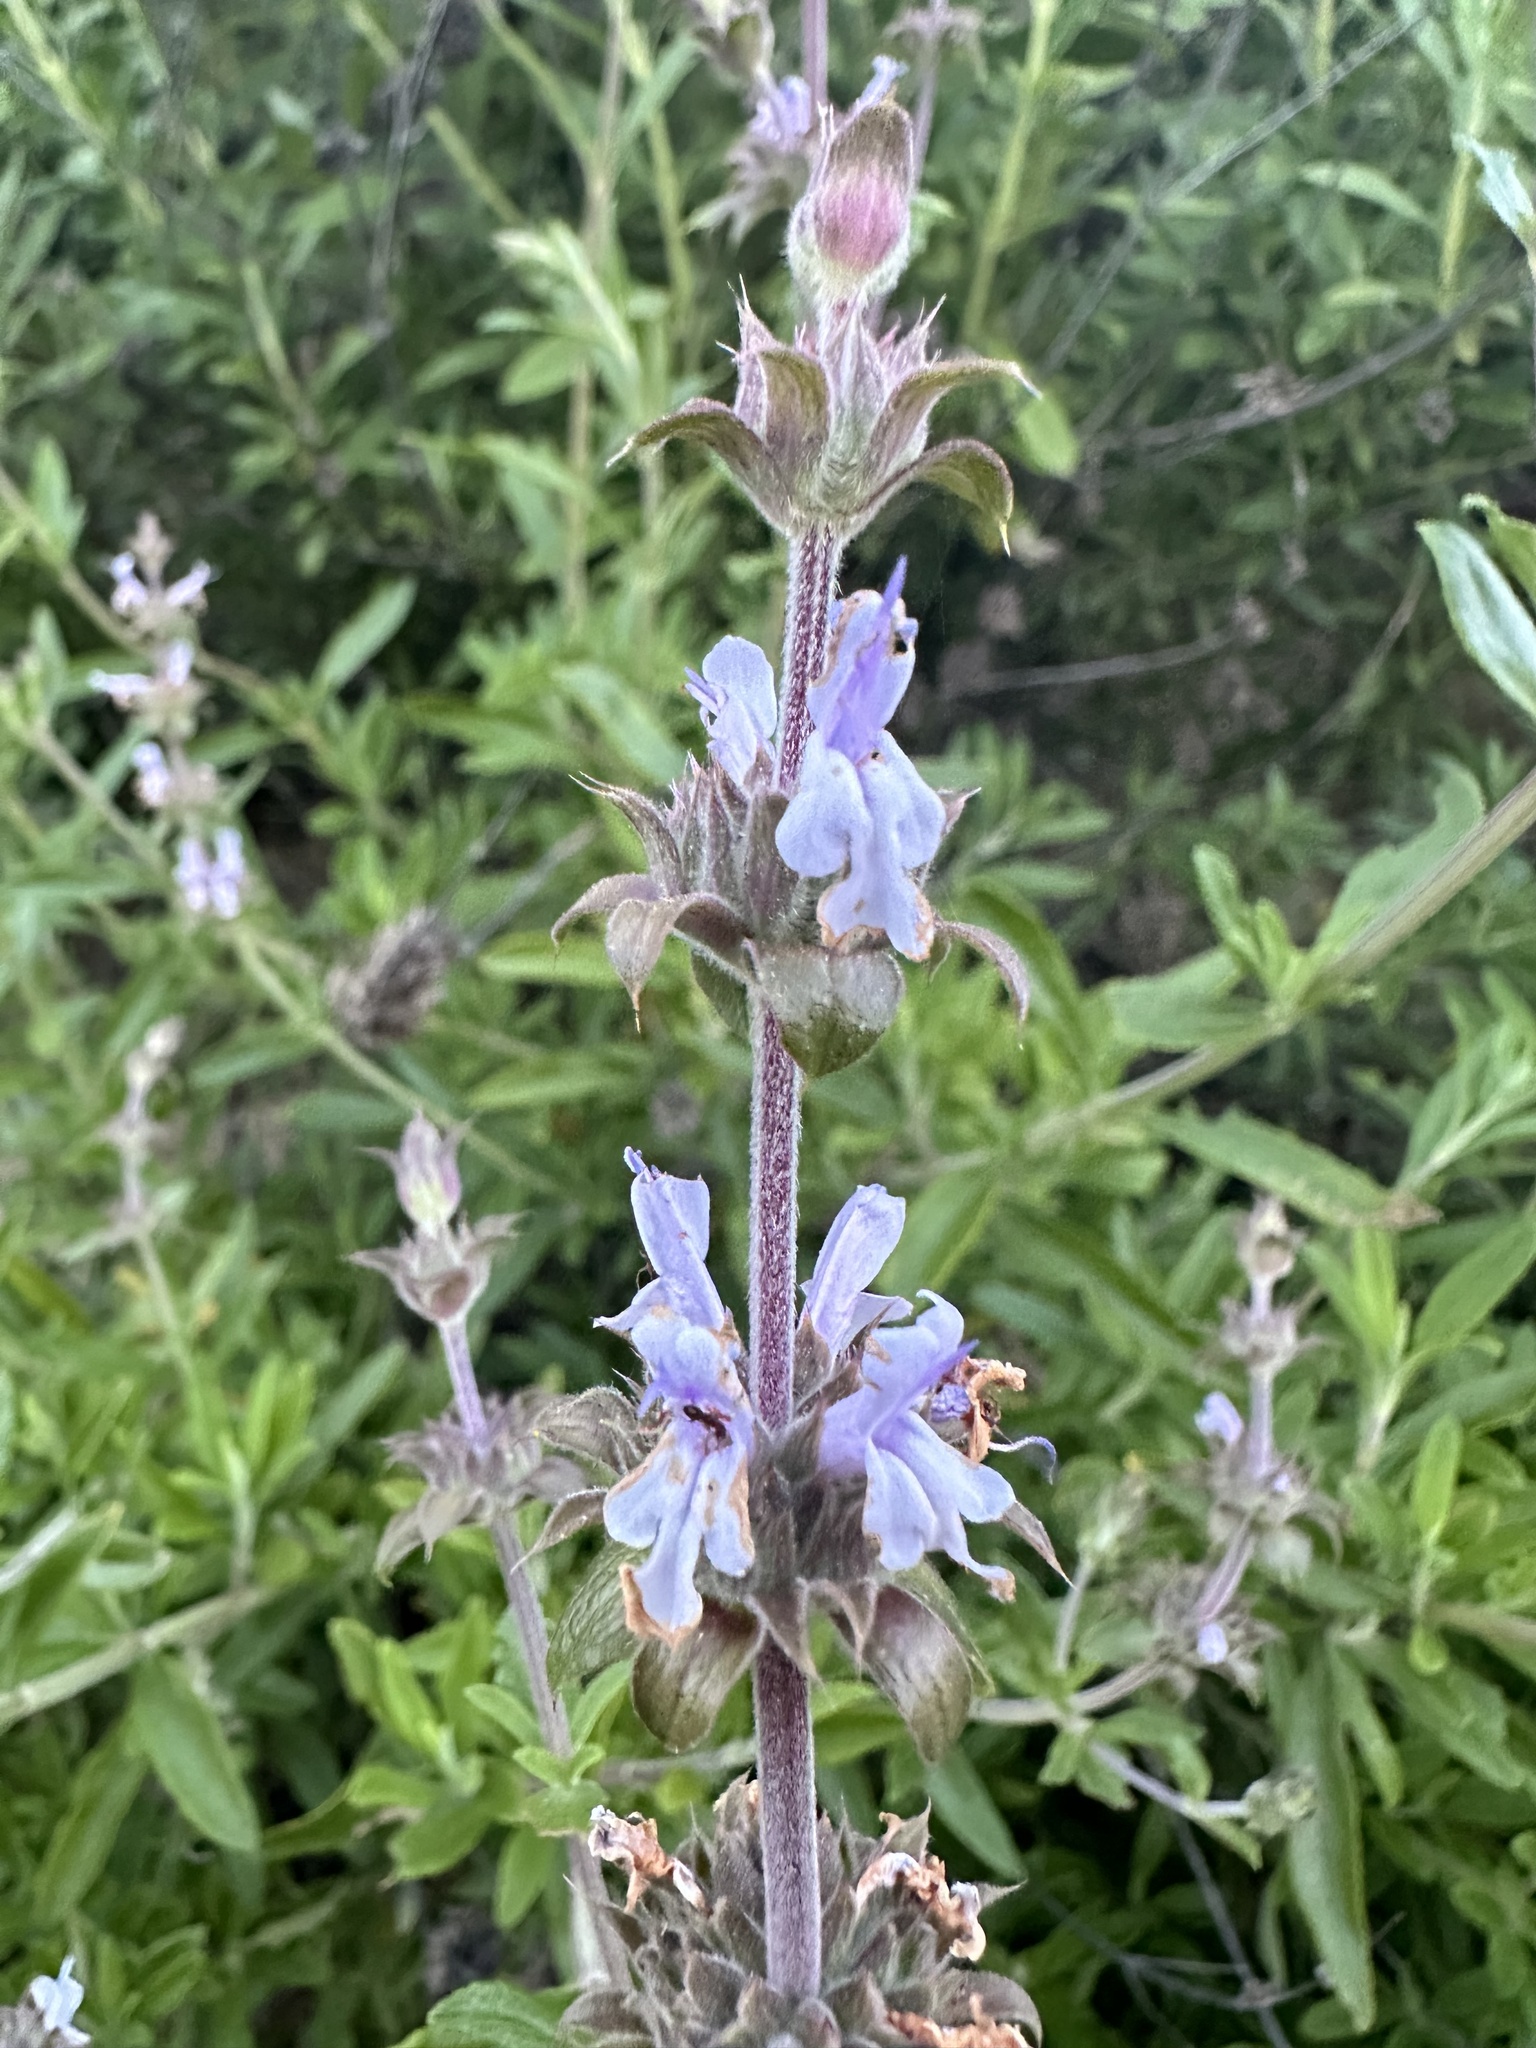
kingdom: Plantae
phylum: Tracheophyta
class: Magnoliopsida
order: Lamiales
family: Lamiaceae
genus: Salvia
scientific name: Salvia mellifera
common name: Black sage
